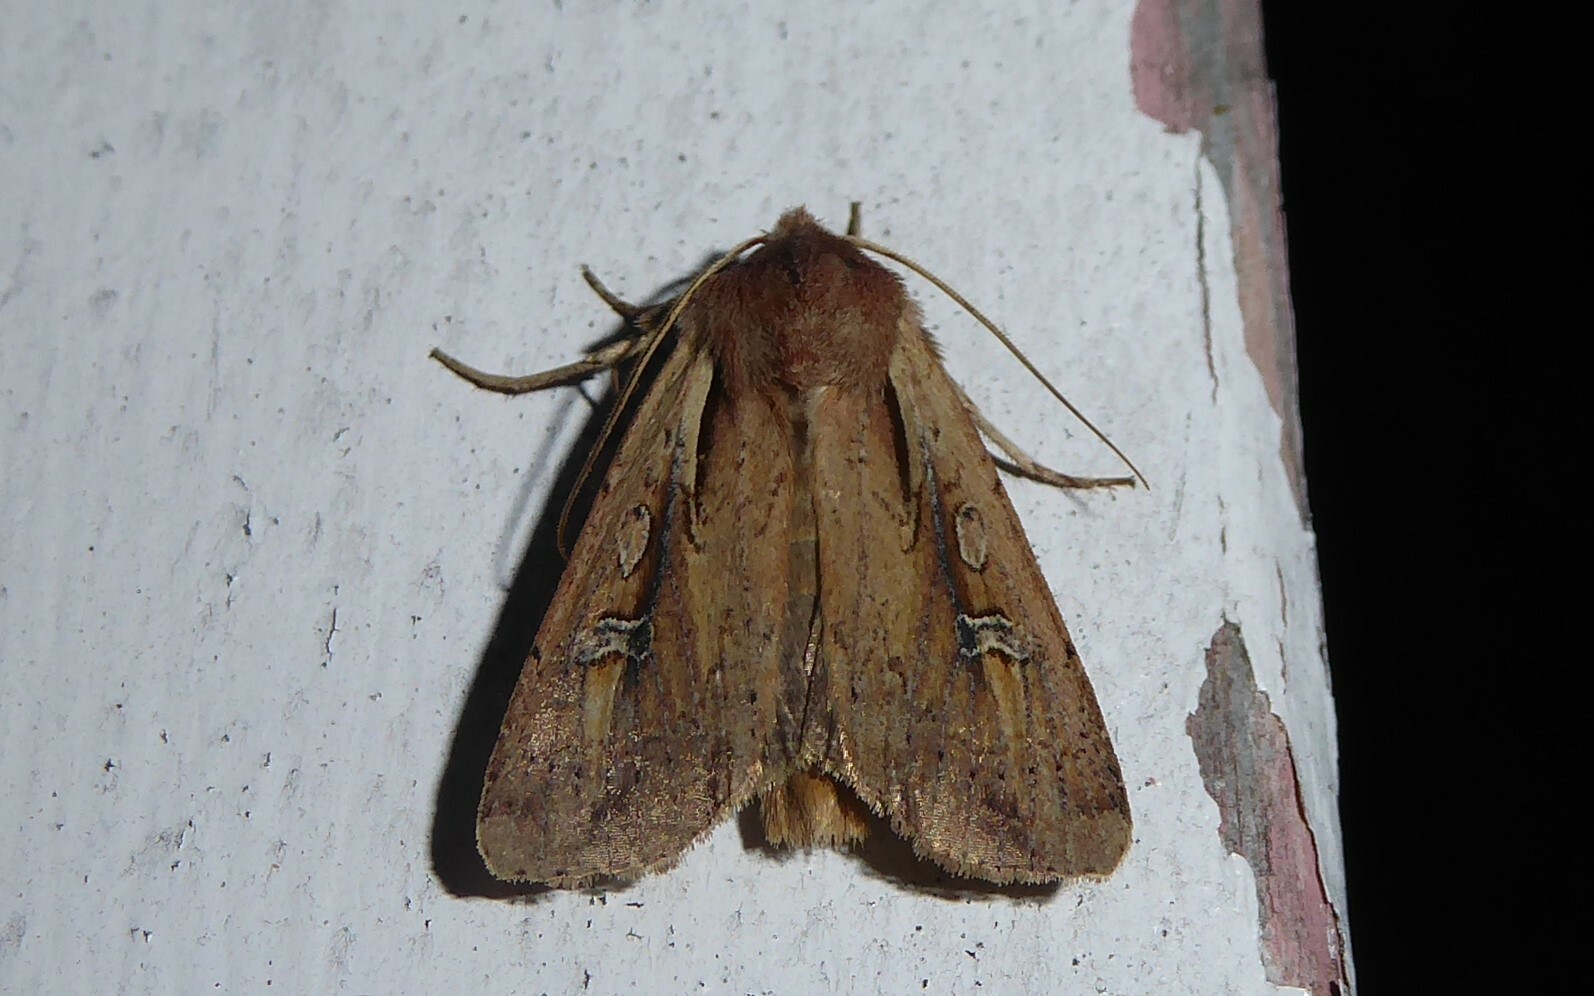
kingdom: Animalia
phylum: Arthropoda
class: Insecta
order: Lepidoptera
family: Noctuidae
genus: Ichneutica
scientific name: Ichneutica atristriga
